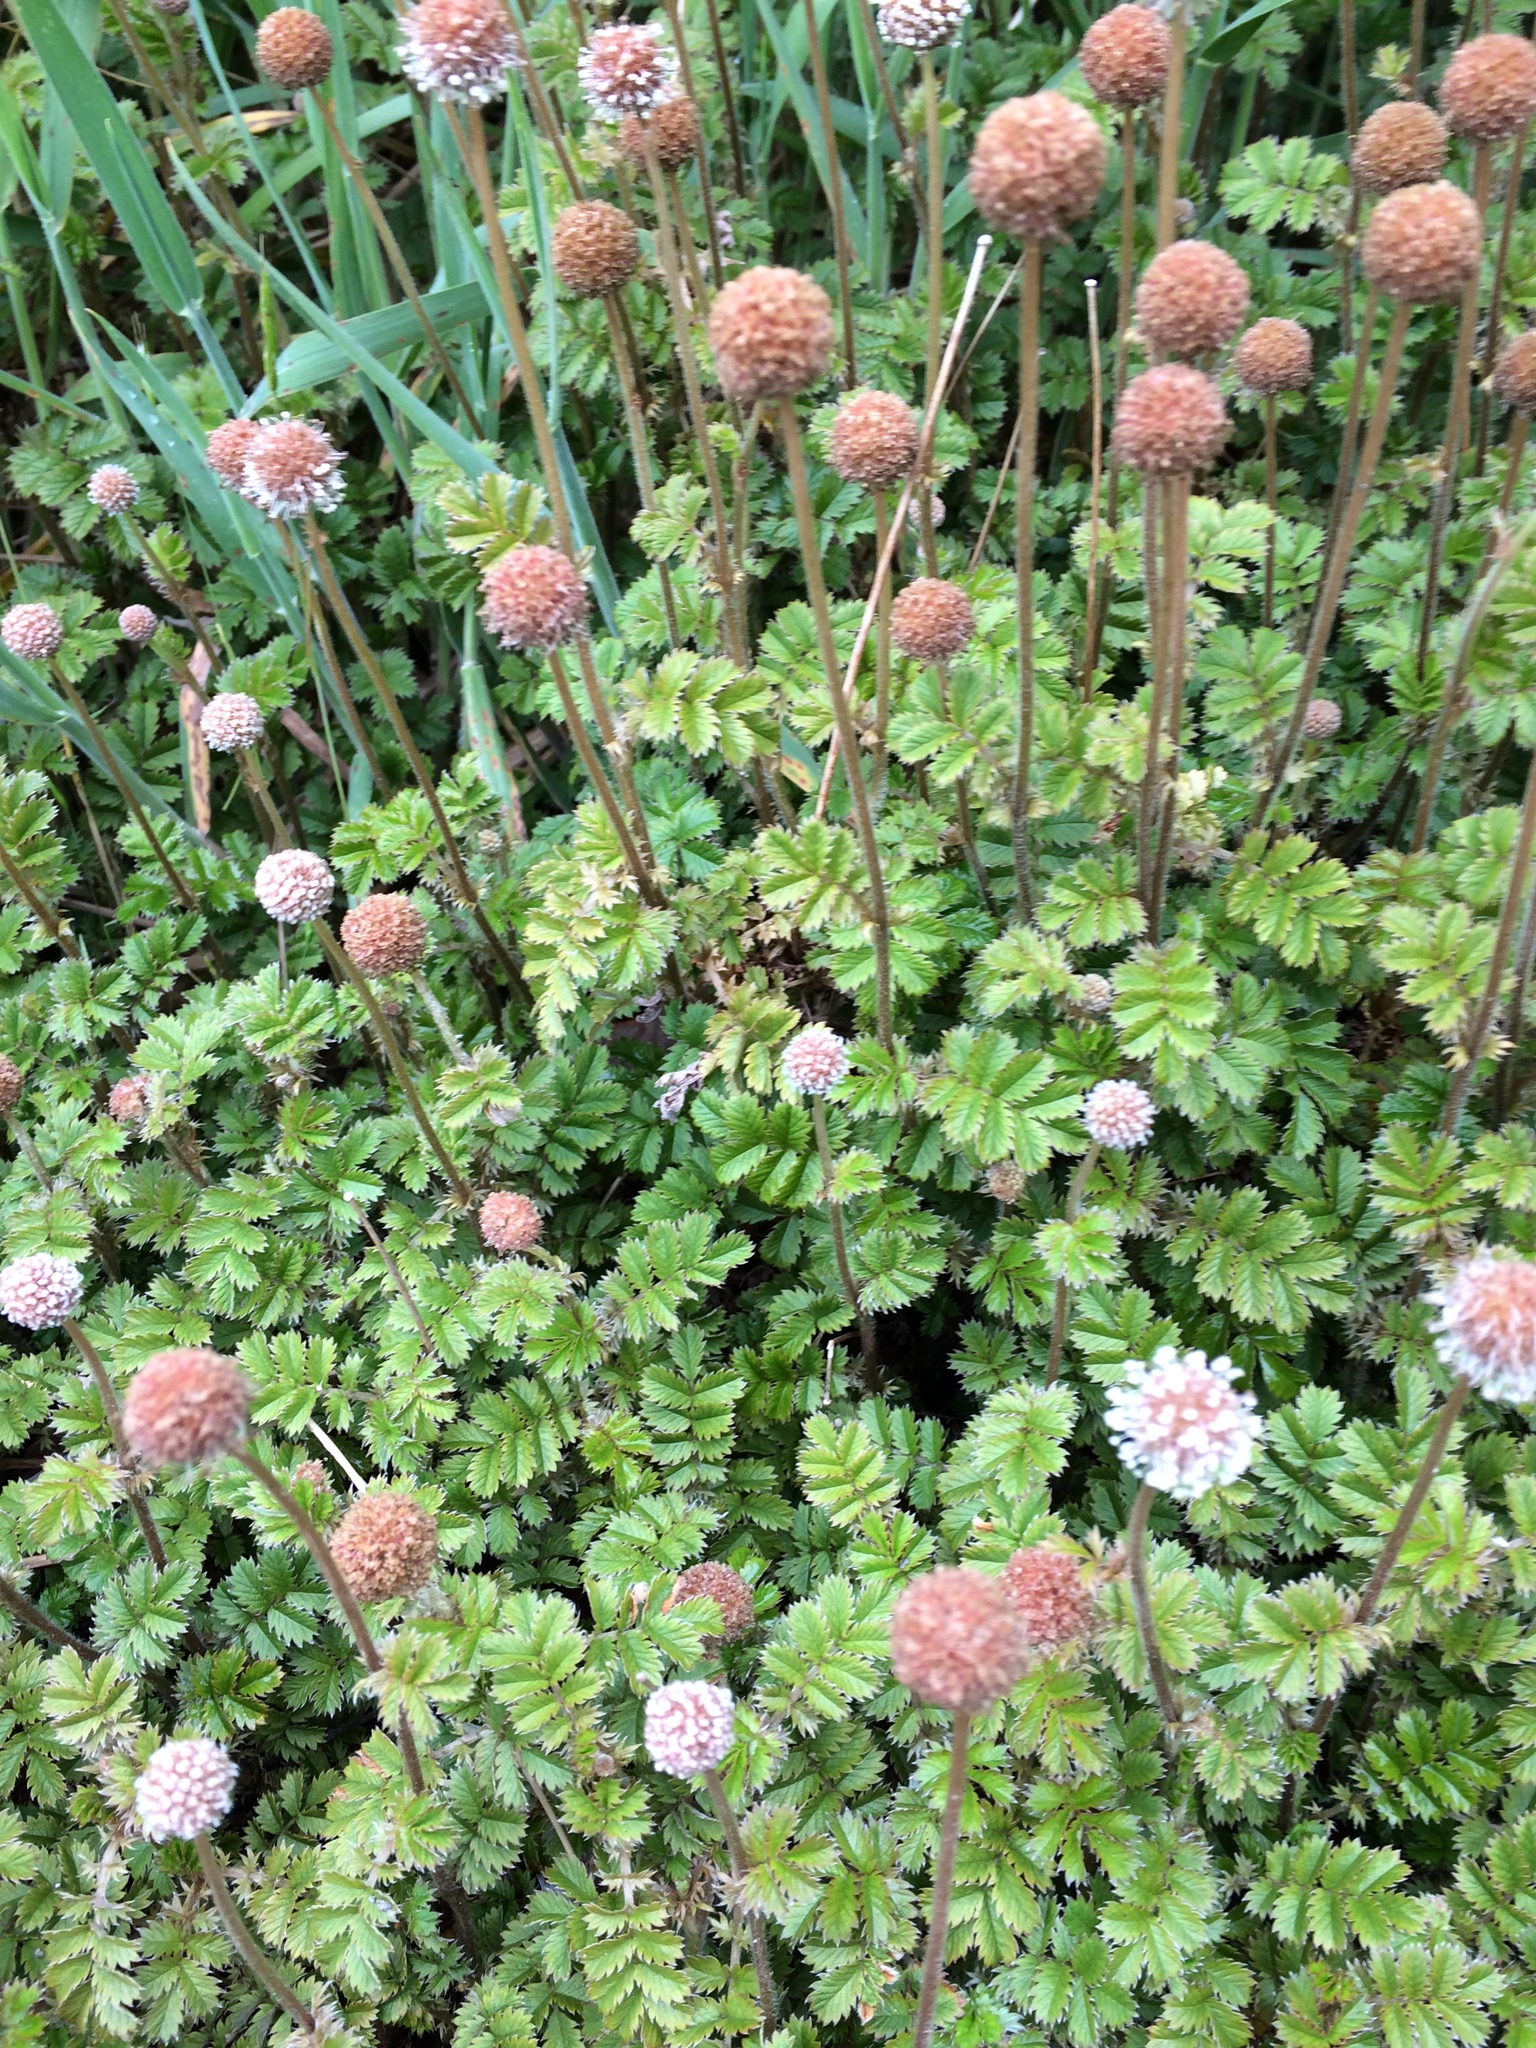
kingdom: Plantae
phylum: Tracheophyta
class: Magnoliopsida
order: Rosales
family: Rosaceae
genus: Acaena
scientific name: Acaena anserinifolia
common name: Bronze pirri-pirri-bur
